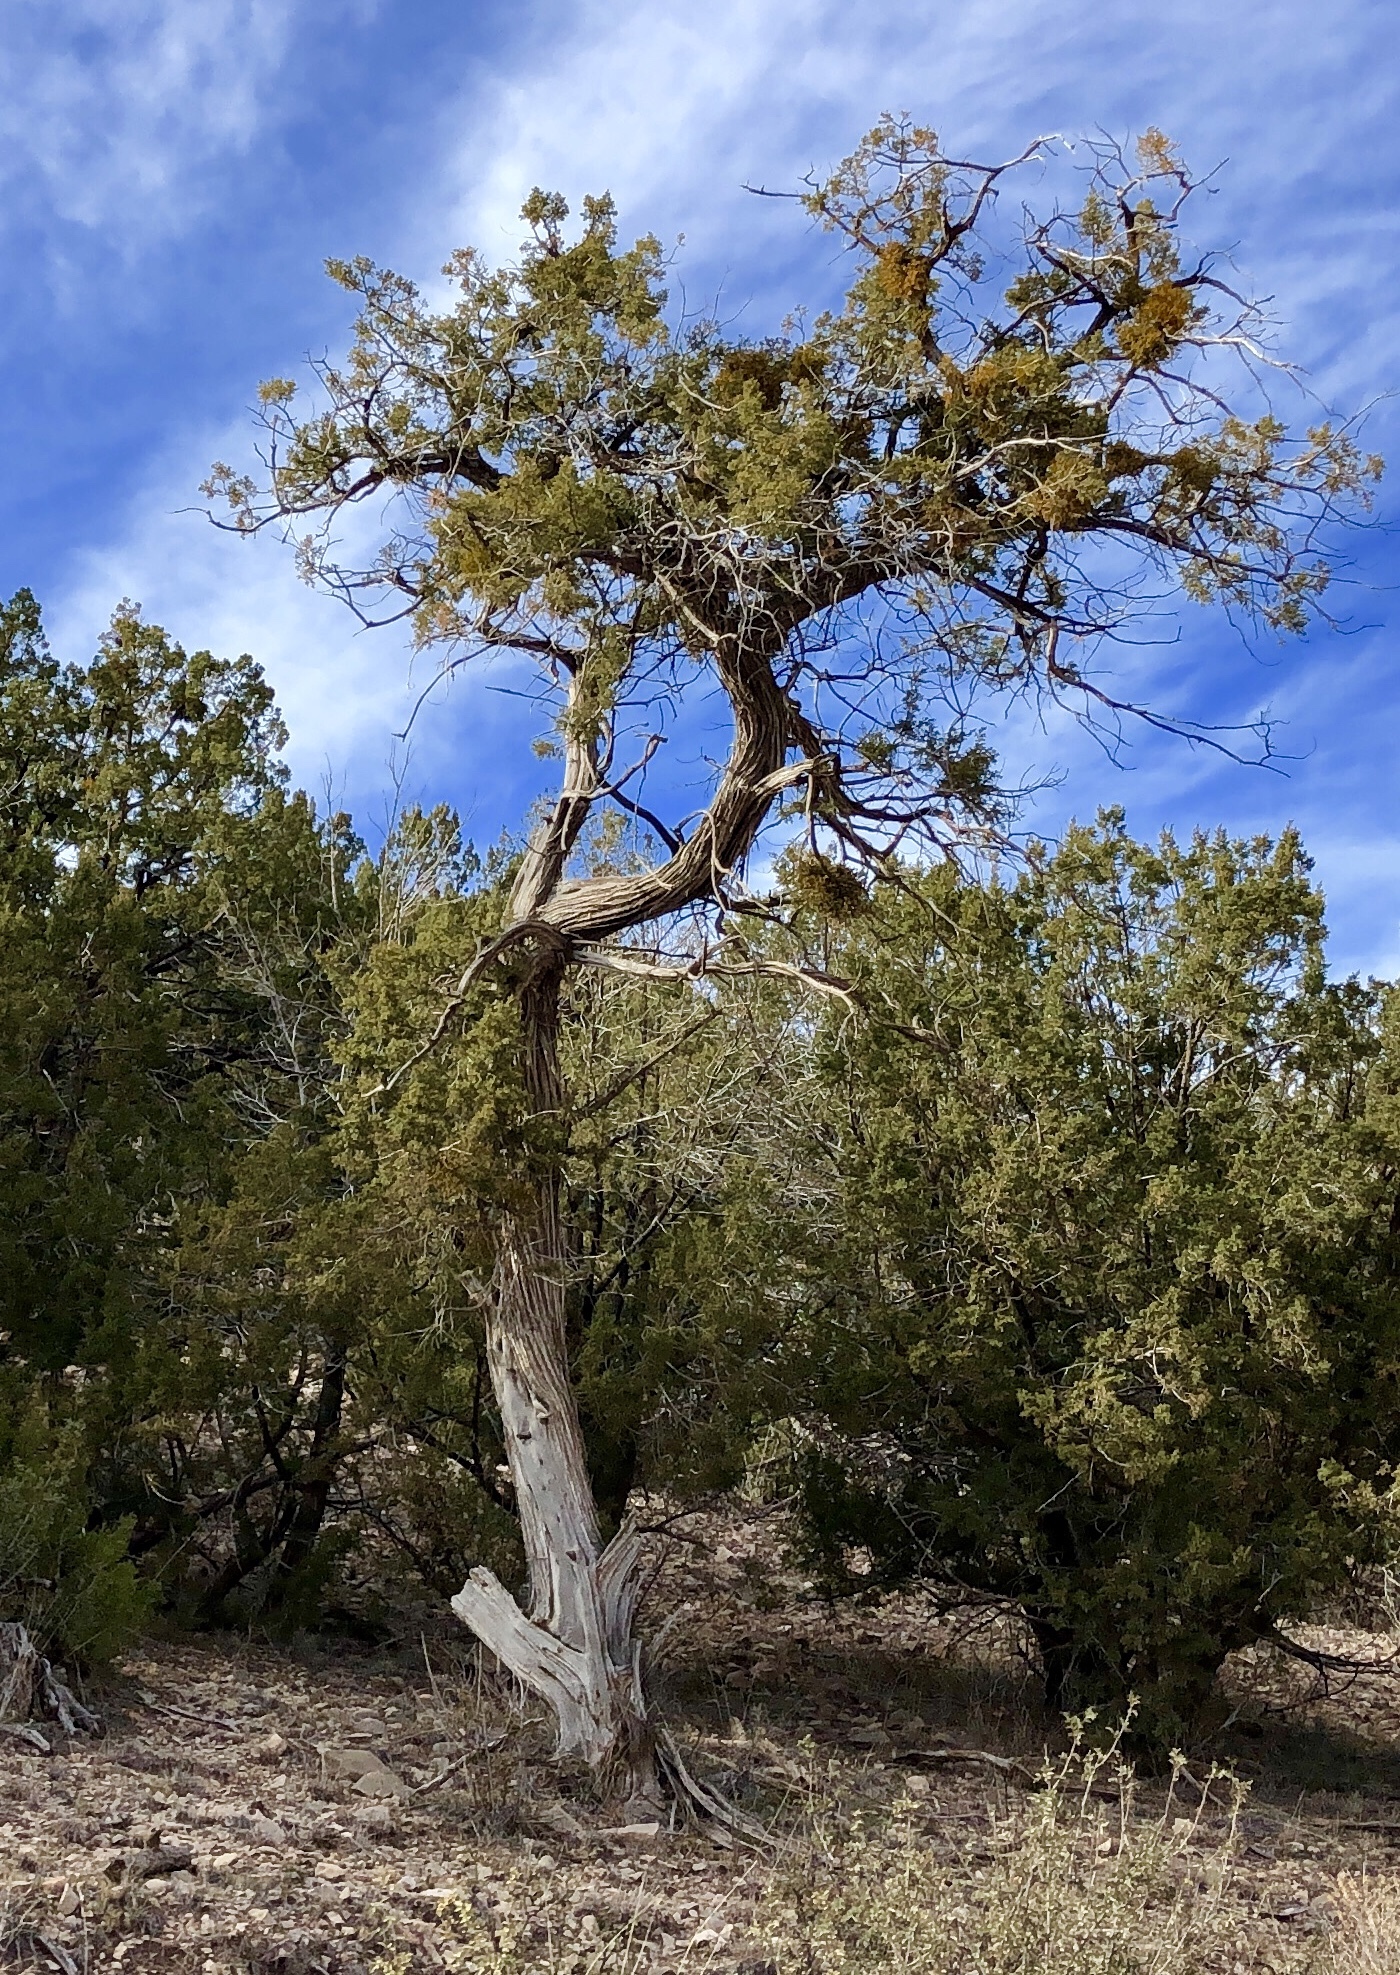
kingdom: Plantae
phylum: Tracheophyta
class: Pinopsida
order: Pinales
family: Cupressaceae
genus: Juniperus
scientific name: Juniperus monosperma
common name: One-seed juniper
